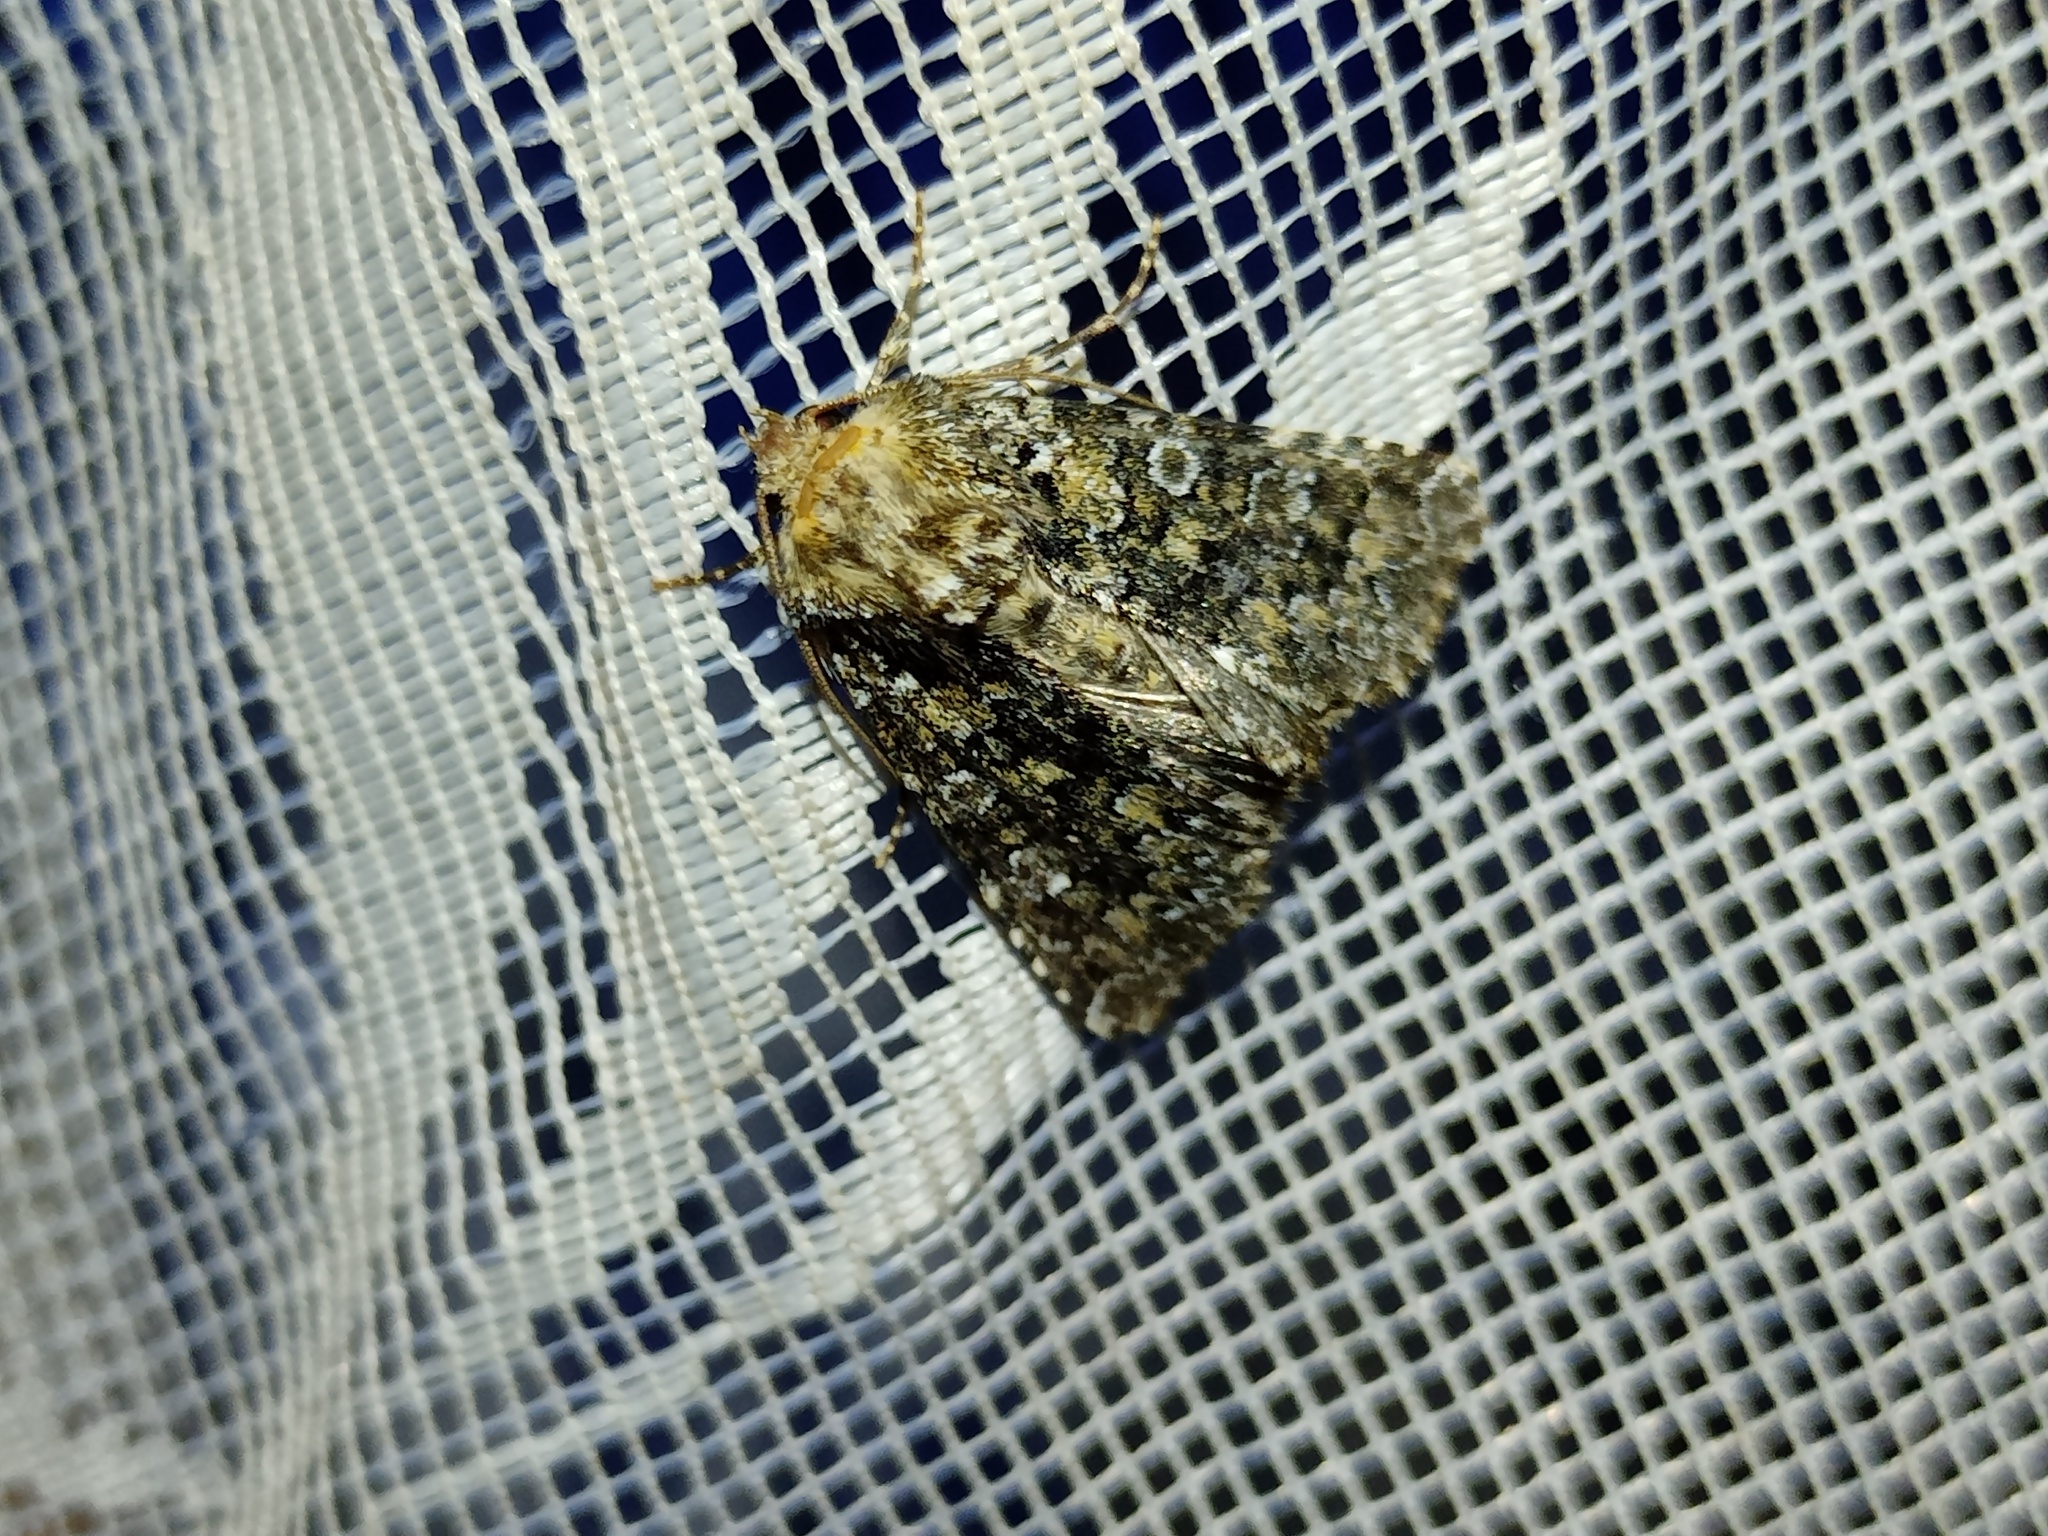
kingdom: Animalia
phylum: Arthropoda
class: Insecta
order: Lepidoptera
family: Noctuidae
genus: Hadena
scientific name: Hadena magnolii
